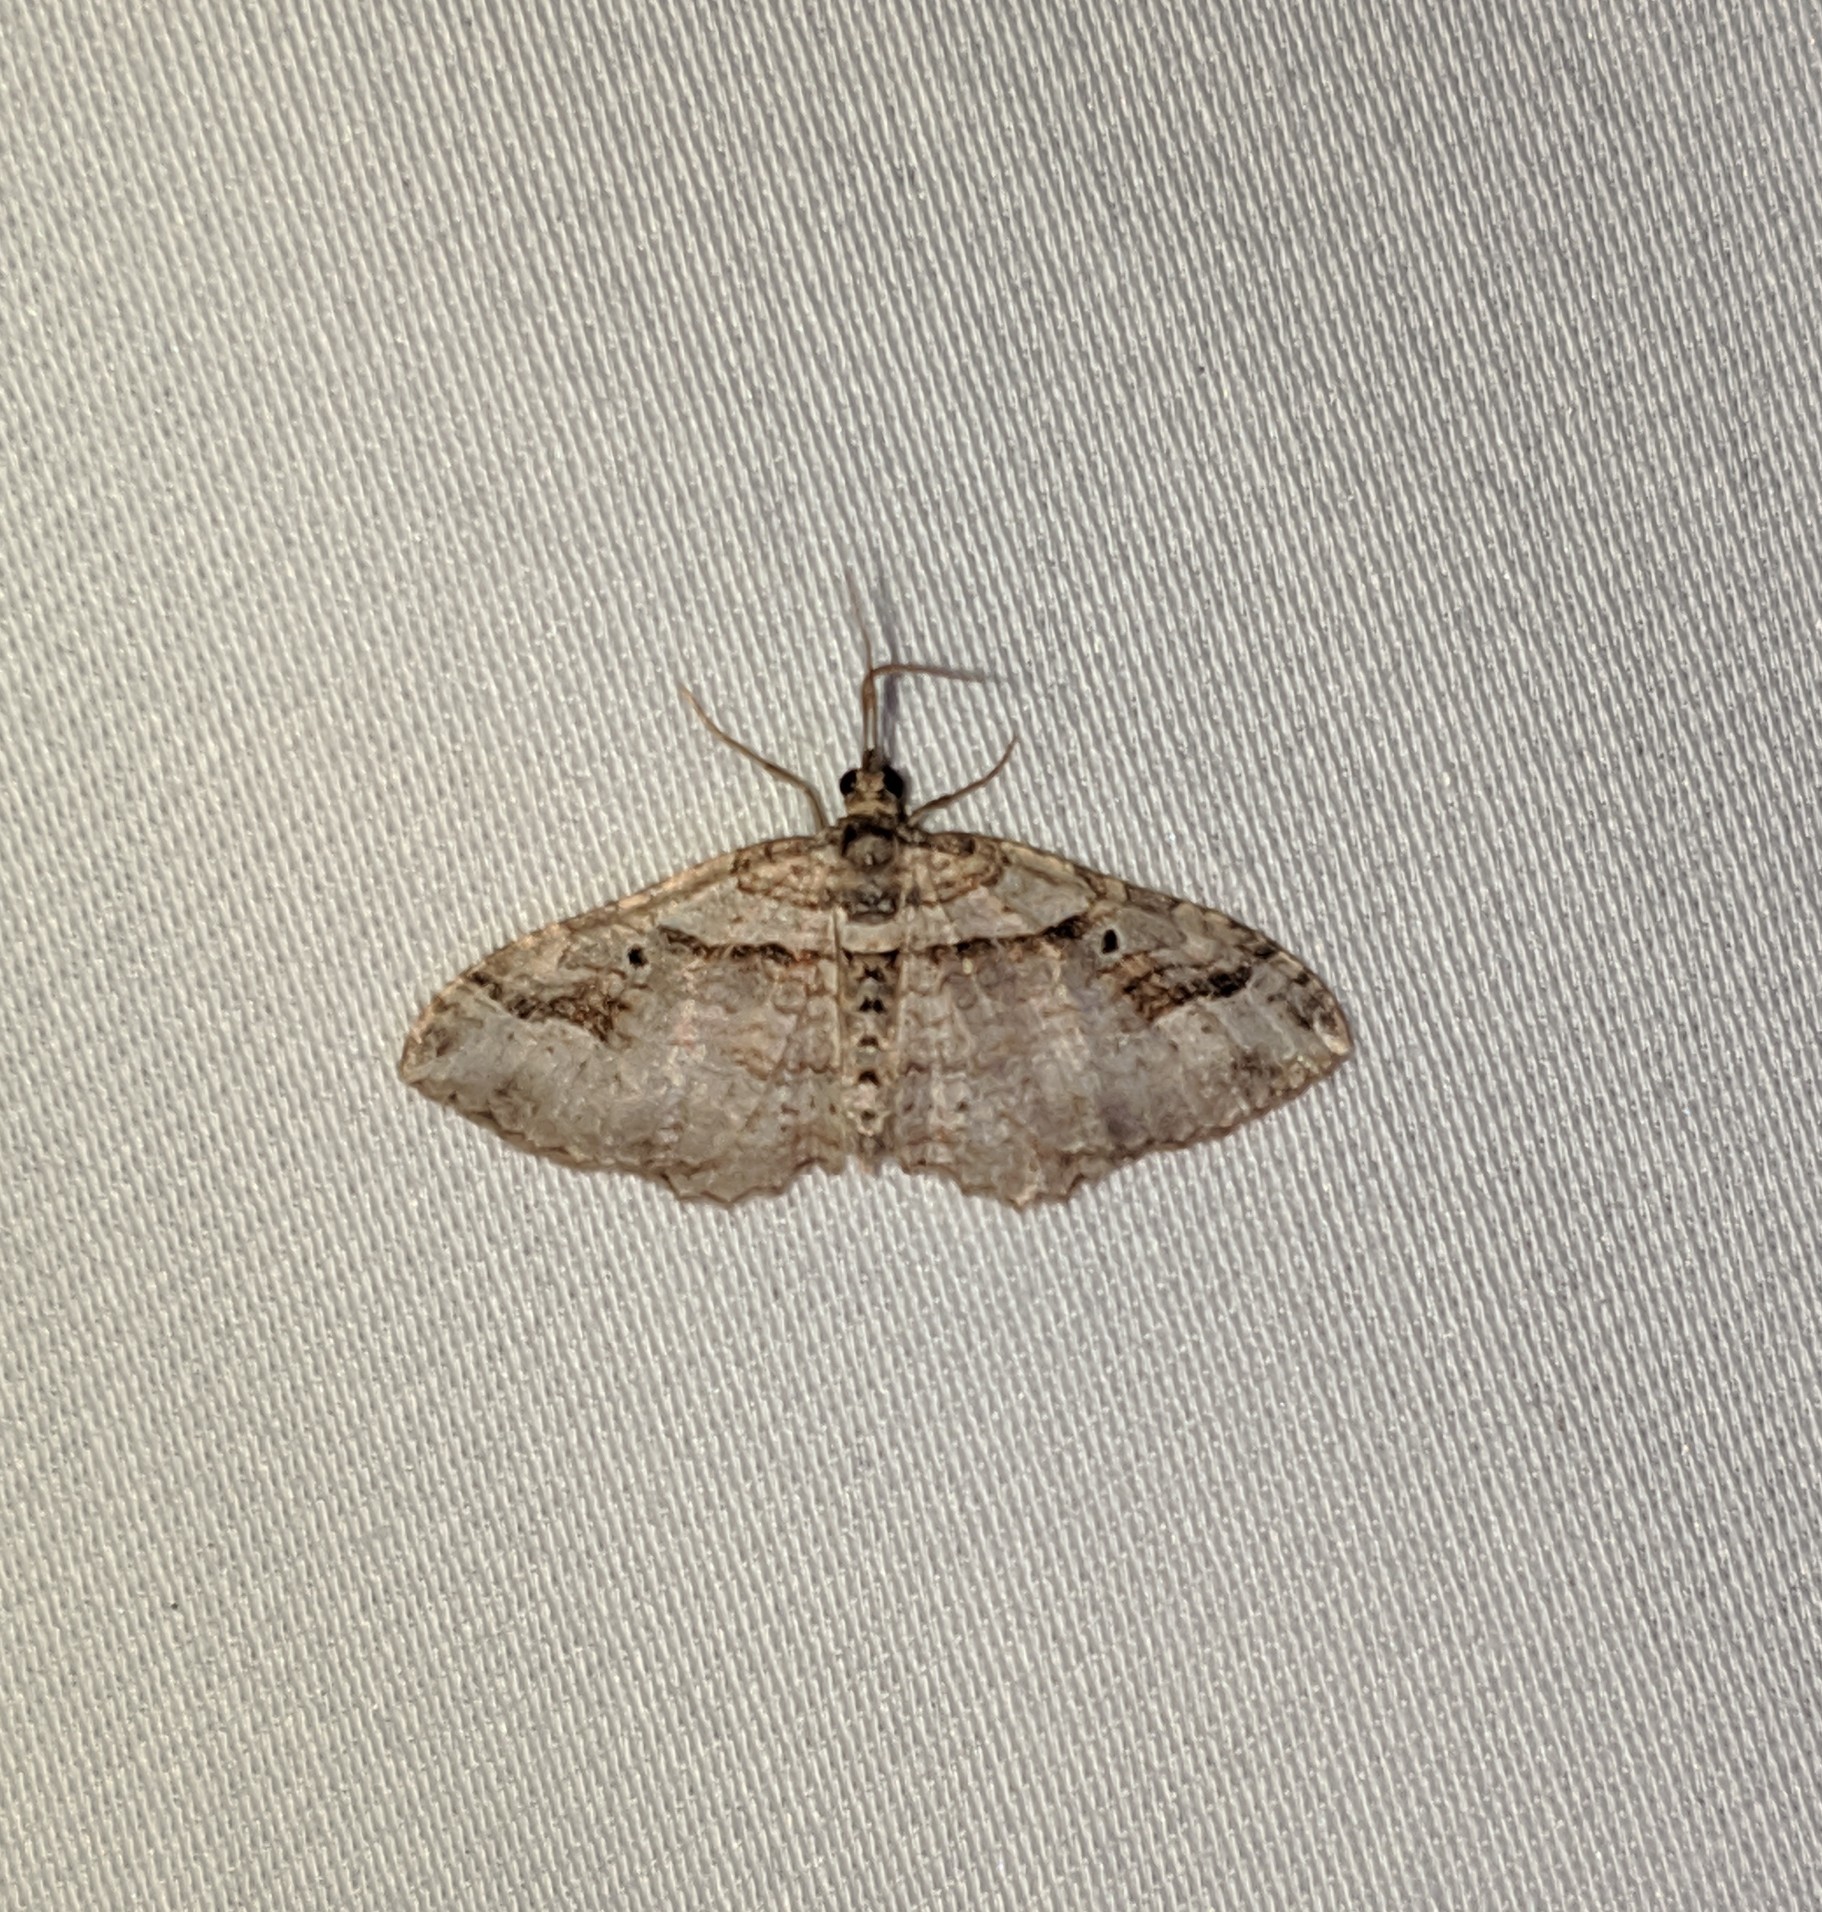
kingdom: Animalia
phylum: Arthropoda
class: Insecta
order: Lepidoptera
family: Geometridae
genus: Costaconvexa
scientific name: Costaconvexa centrostrigaria
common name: Bent-line carpet
